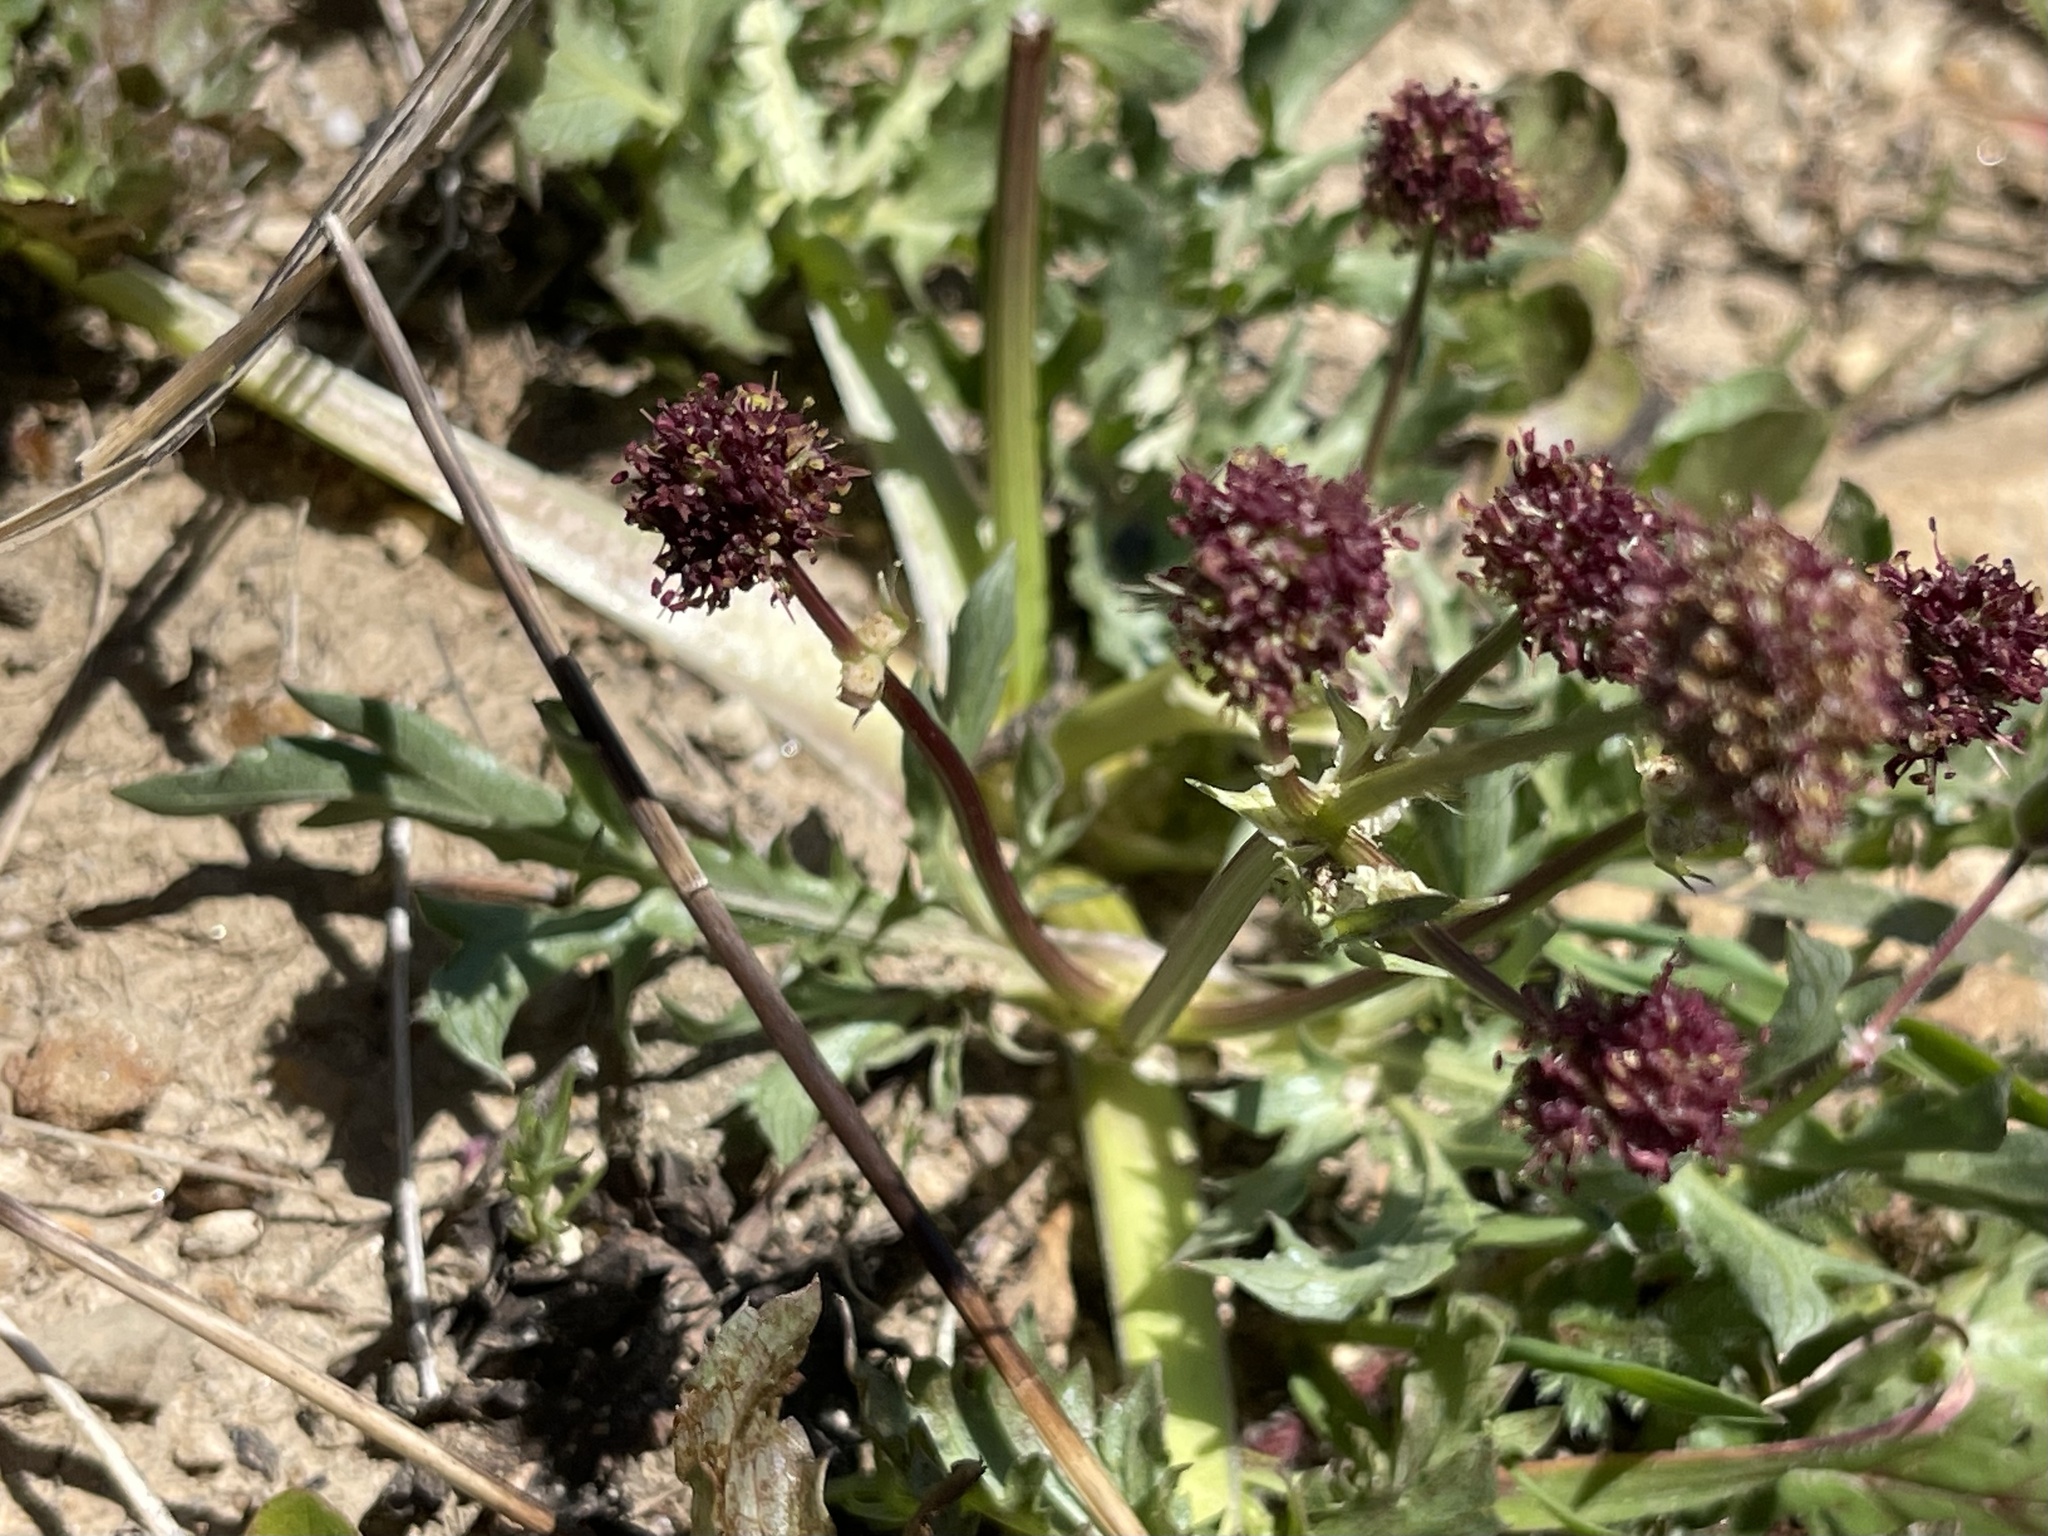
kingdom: Plantae
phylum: Tracheophyta
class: Magnoliopsida
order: Apiales
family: Apiaceae
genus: Sanicula
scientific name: Sanicula bipinnatifida
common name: Shoe-buttons
